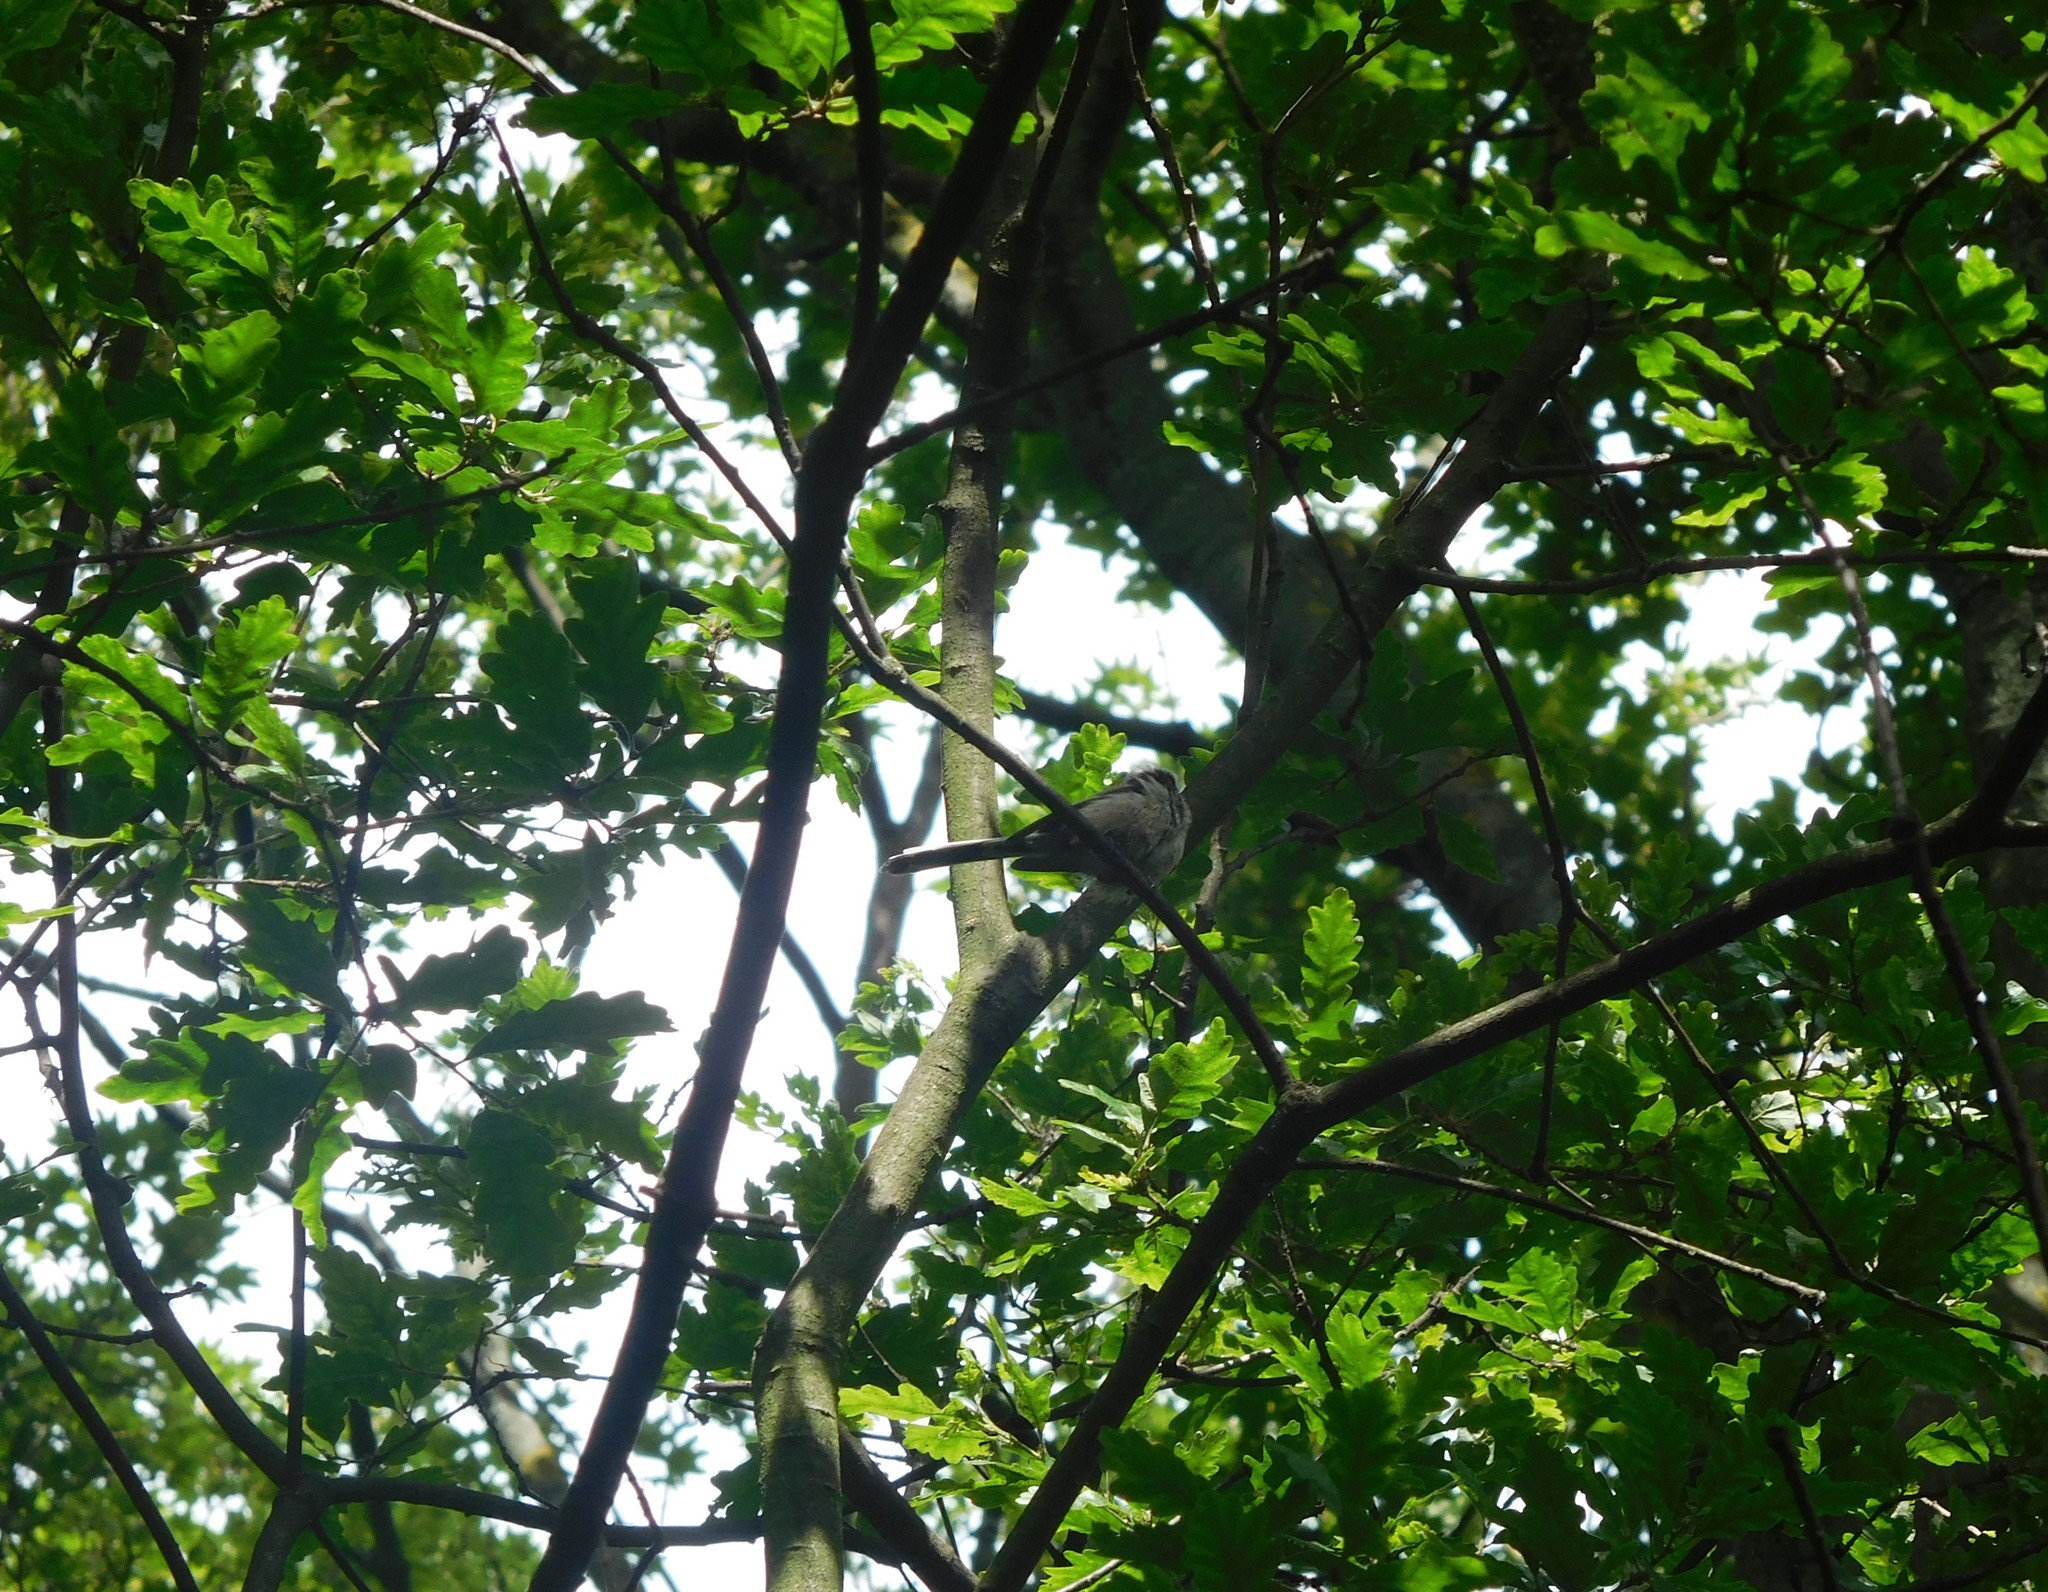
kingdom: Animalia
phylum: Chordata
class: Aves
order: Passeriformes
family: Aegithalidae
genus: Aegithalos
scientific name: Aegithalos caudatus
